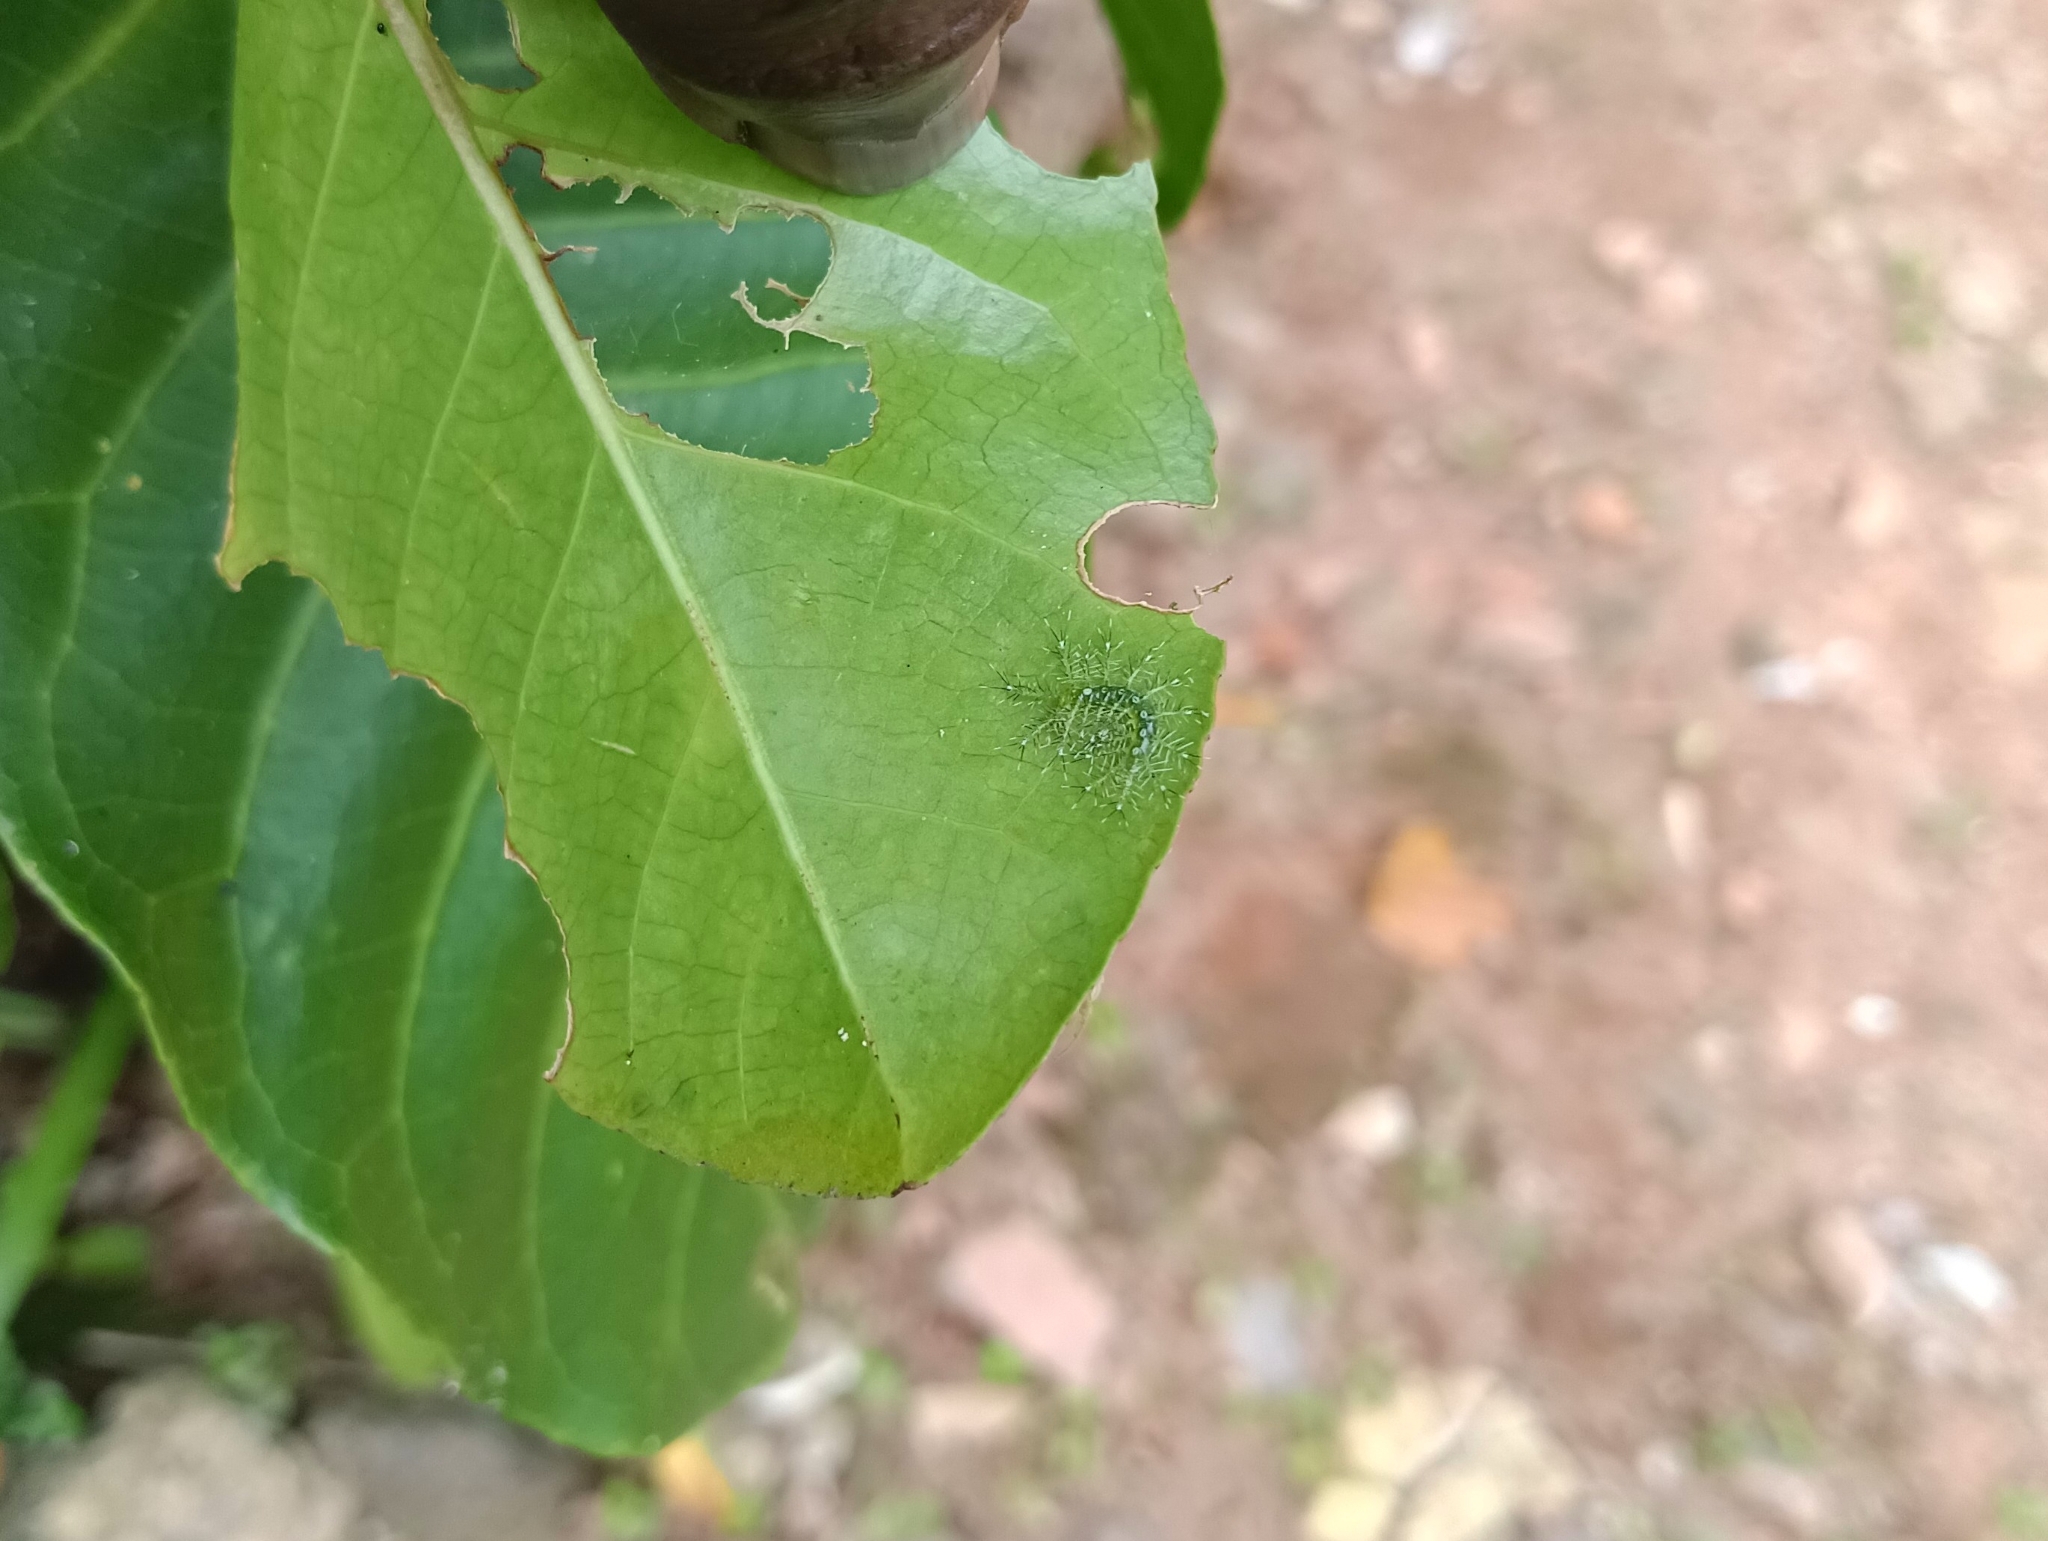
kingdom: Animalia
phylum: Arthropoda
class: Insecta
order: Lepidoptera
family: Nymphalidae
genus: Tanaecia
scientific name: Tanaecia lepidea
